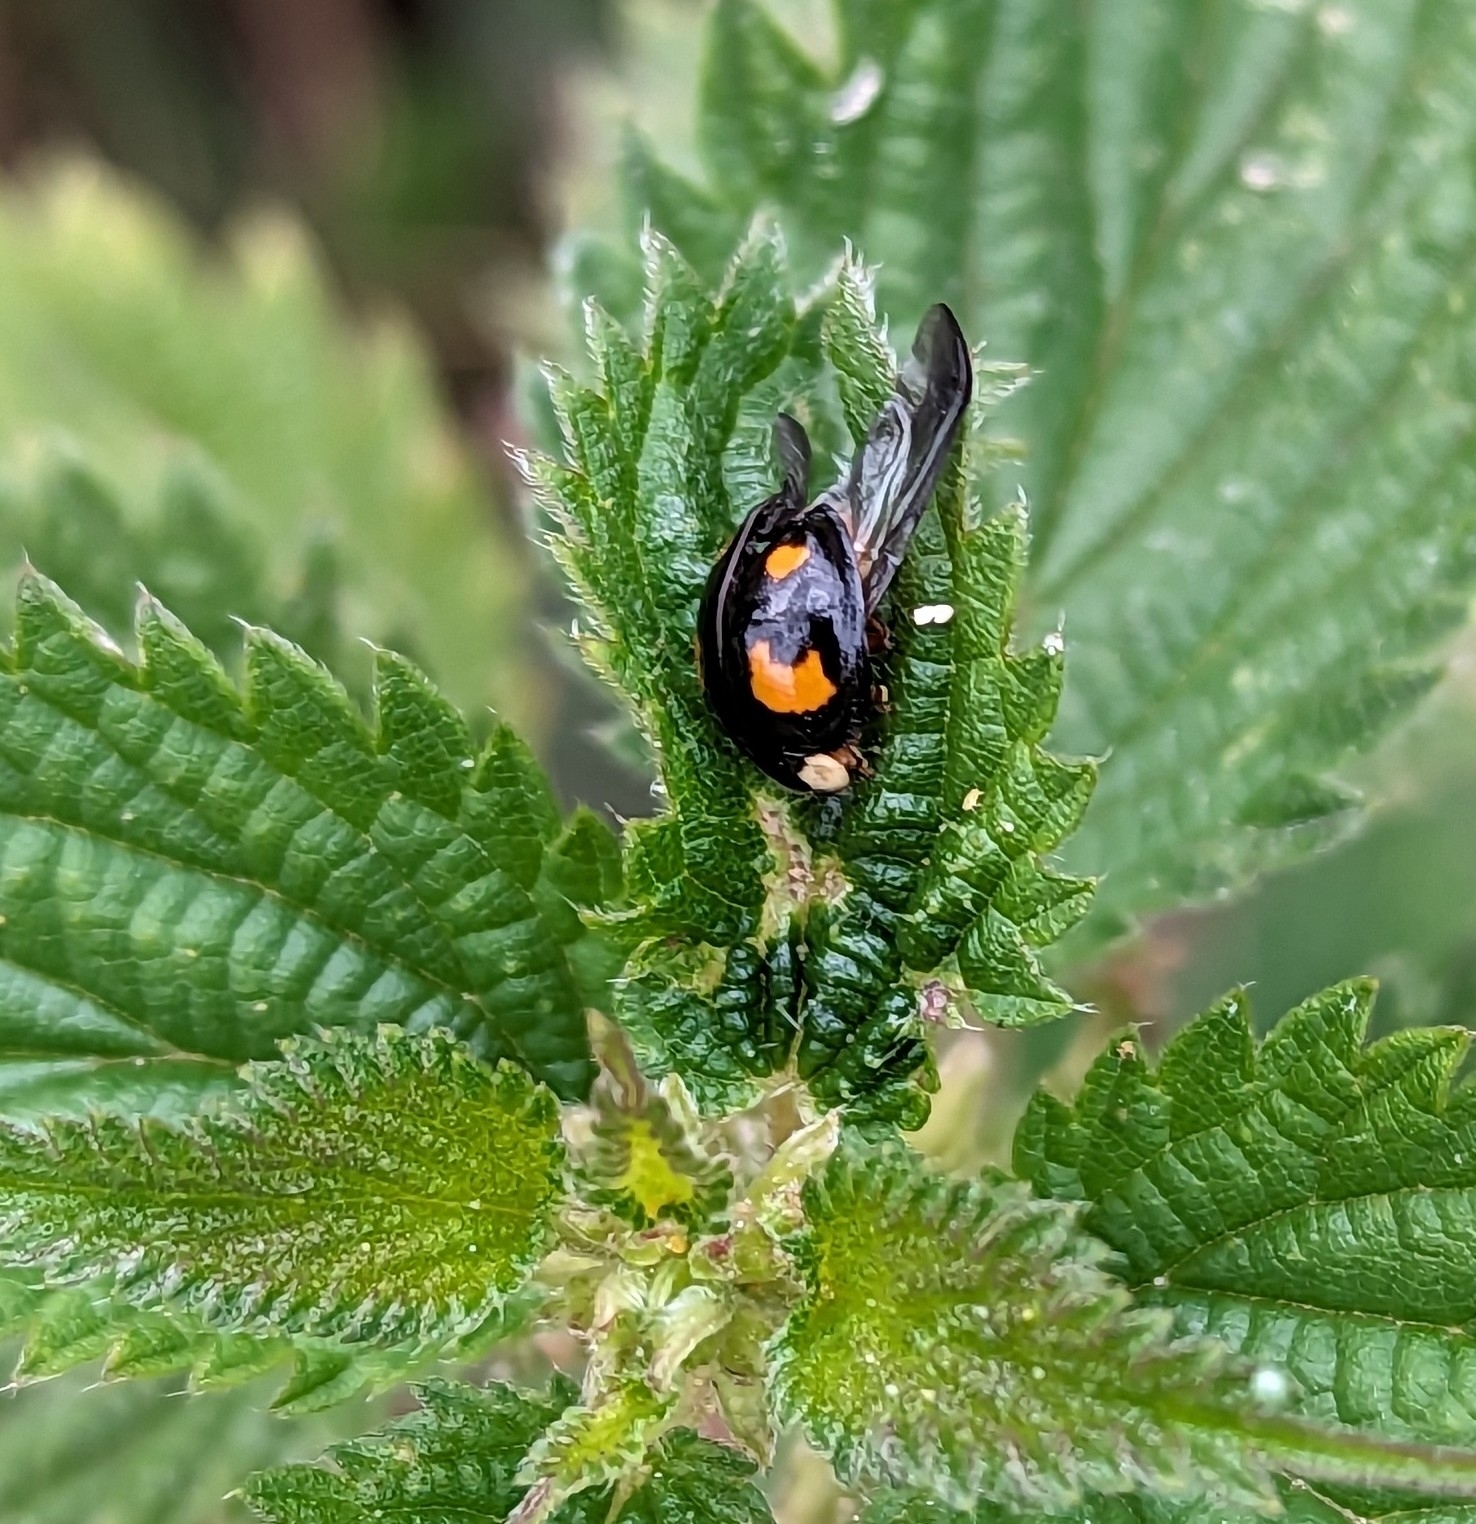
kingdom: Animalia
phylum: Arthropoda
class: Insecta
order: Coleoptera
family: Coccinellidae
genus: Harmonia
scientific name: Harmonia axyridis
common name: Harlequin ladybird
